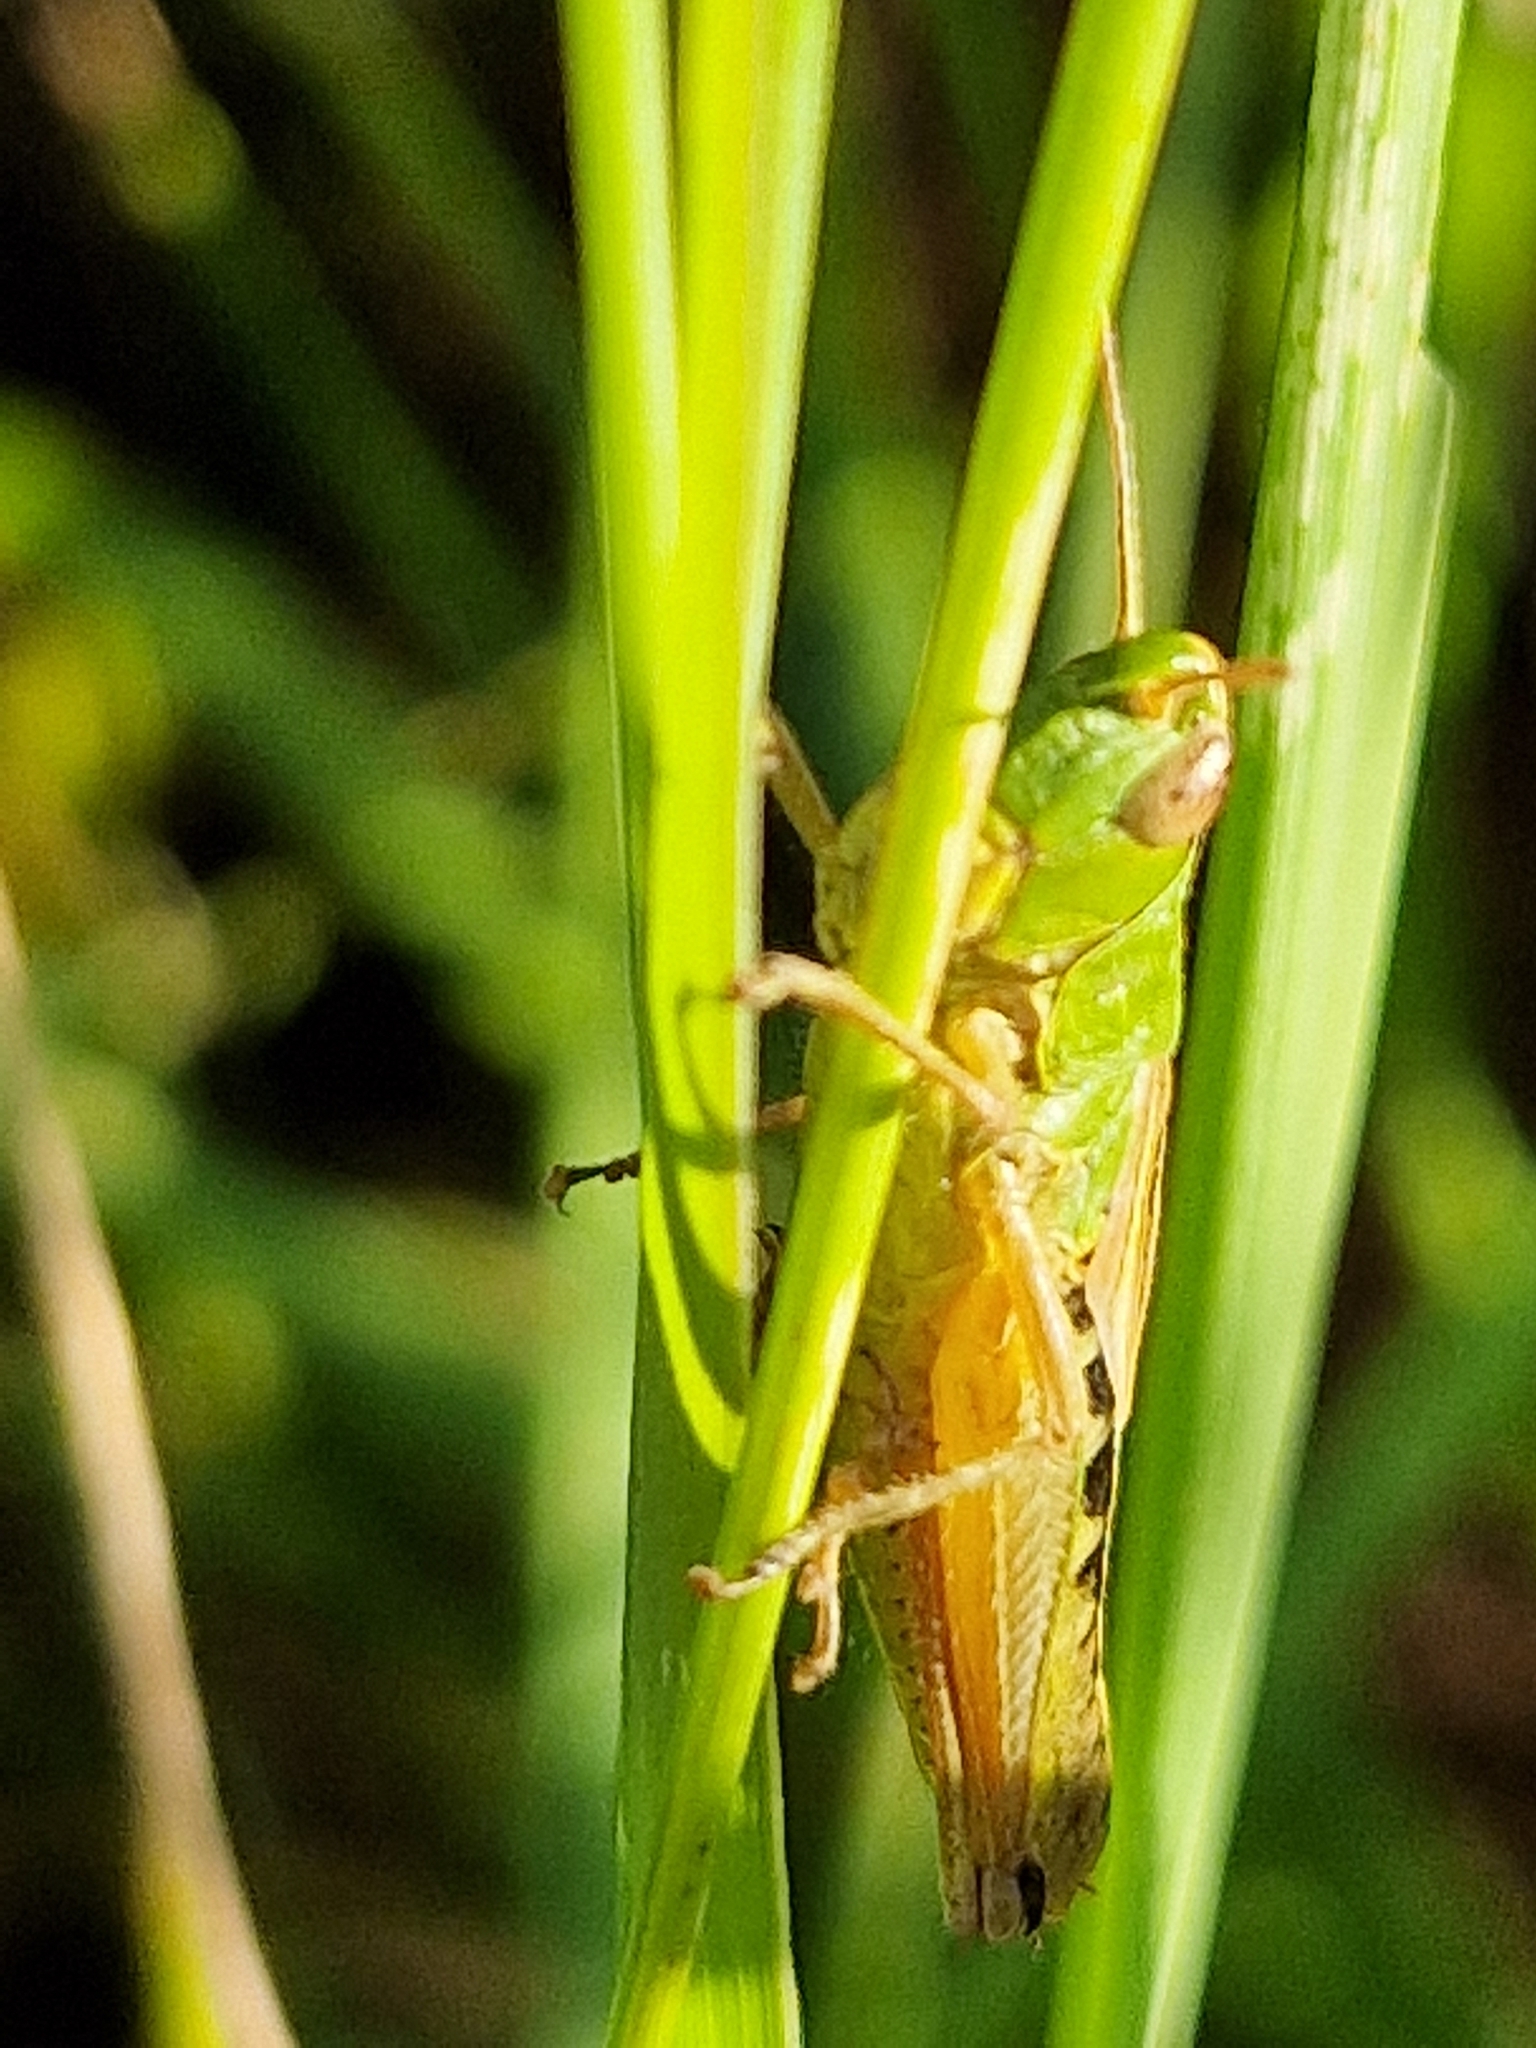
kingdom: Animalia
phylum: Arthropoda
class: Insecta
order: Orthoptera
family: Acrididae
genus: Pseudochorthippus
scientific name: Pseudochorthippus parallelus
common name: Meadow grasshopper
